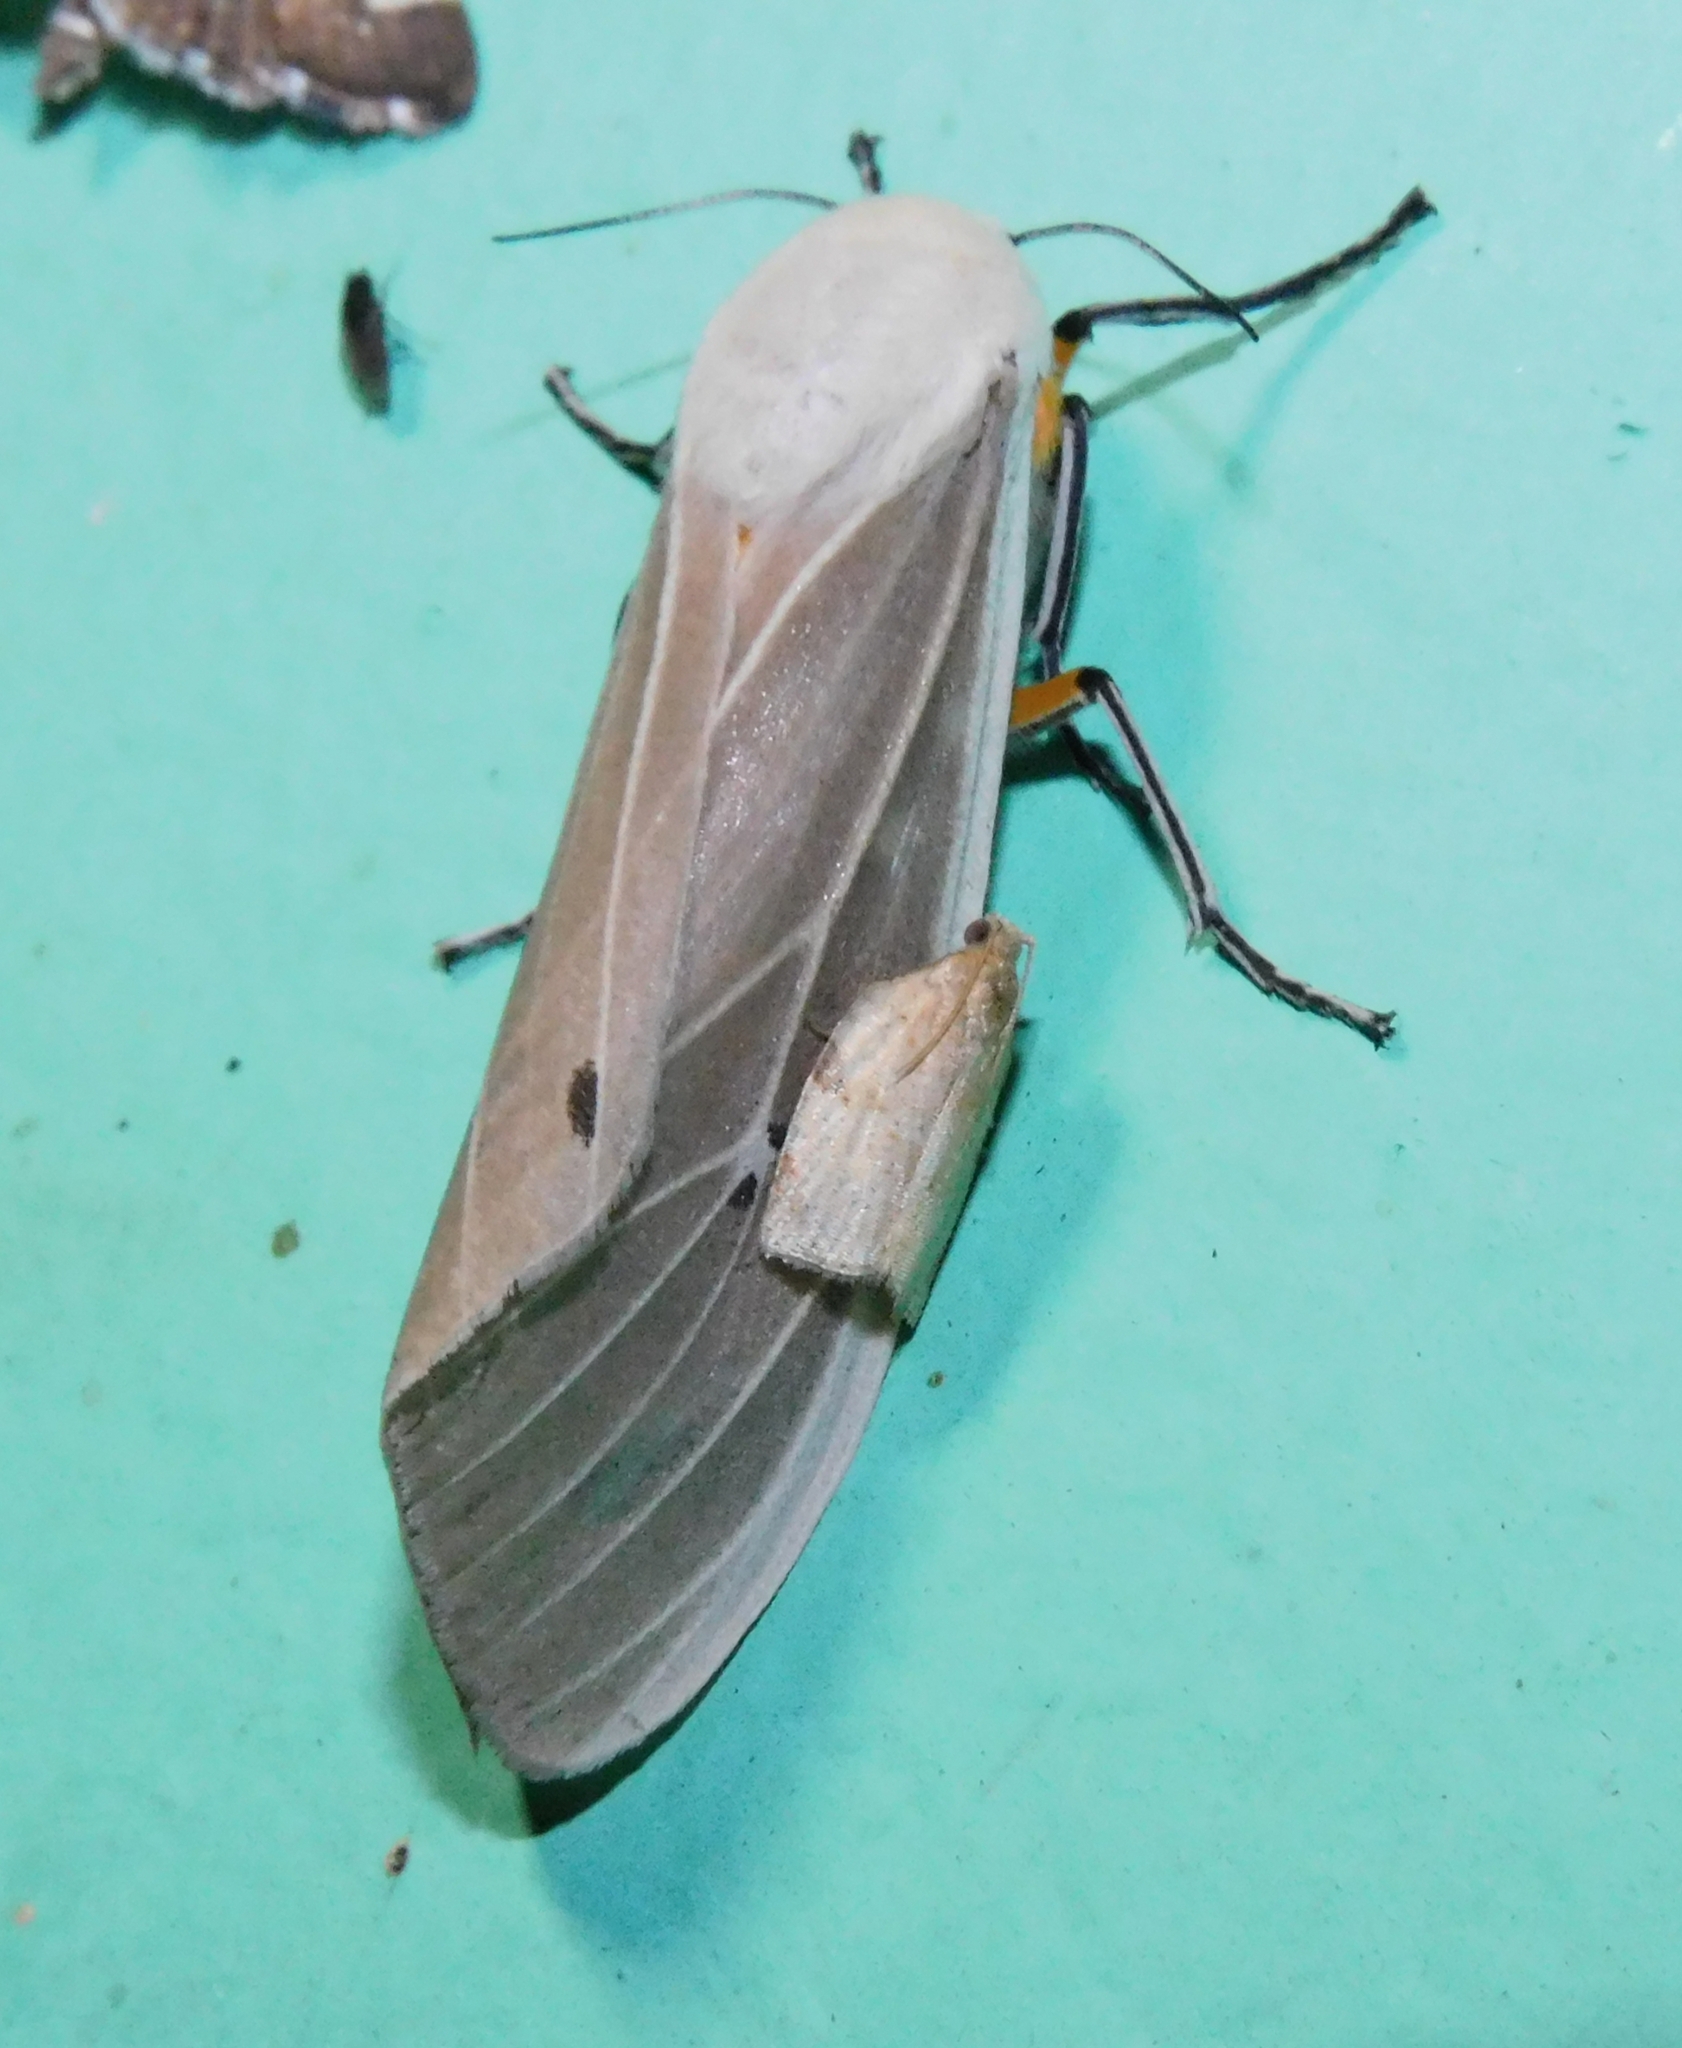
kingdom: Animalia
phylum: Arthropoda
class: Insecta
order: Lepidoptera
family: Erebidae
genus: Creatonotos
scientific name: Creatonotos transiens
